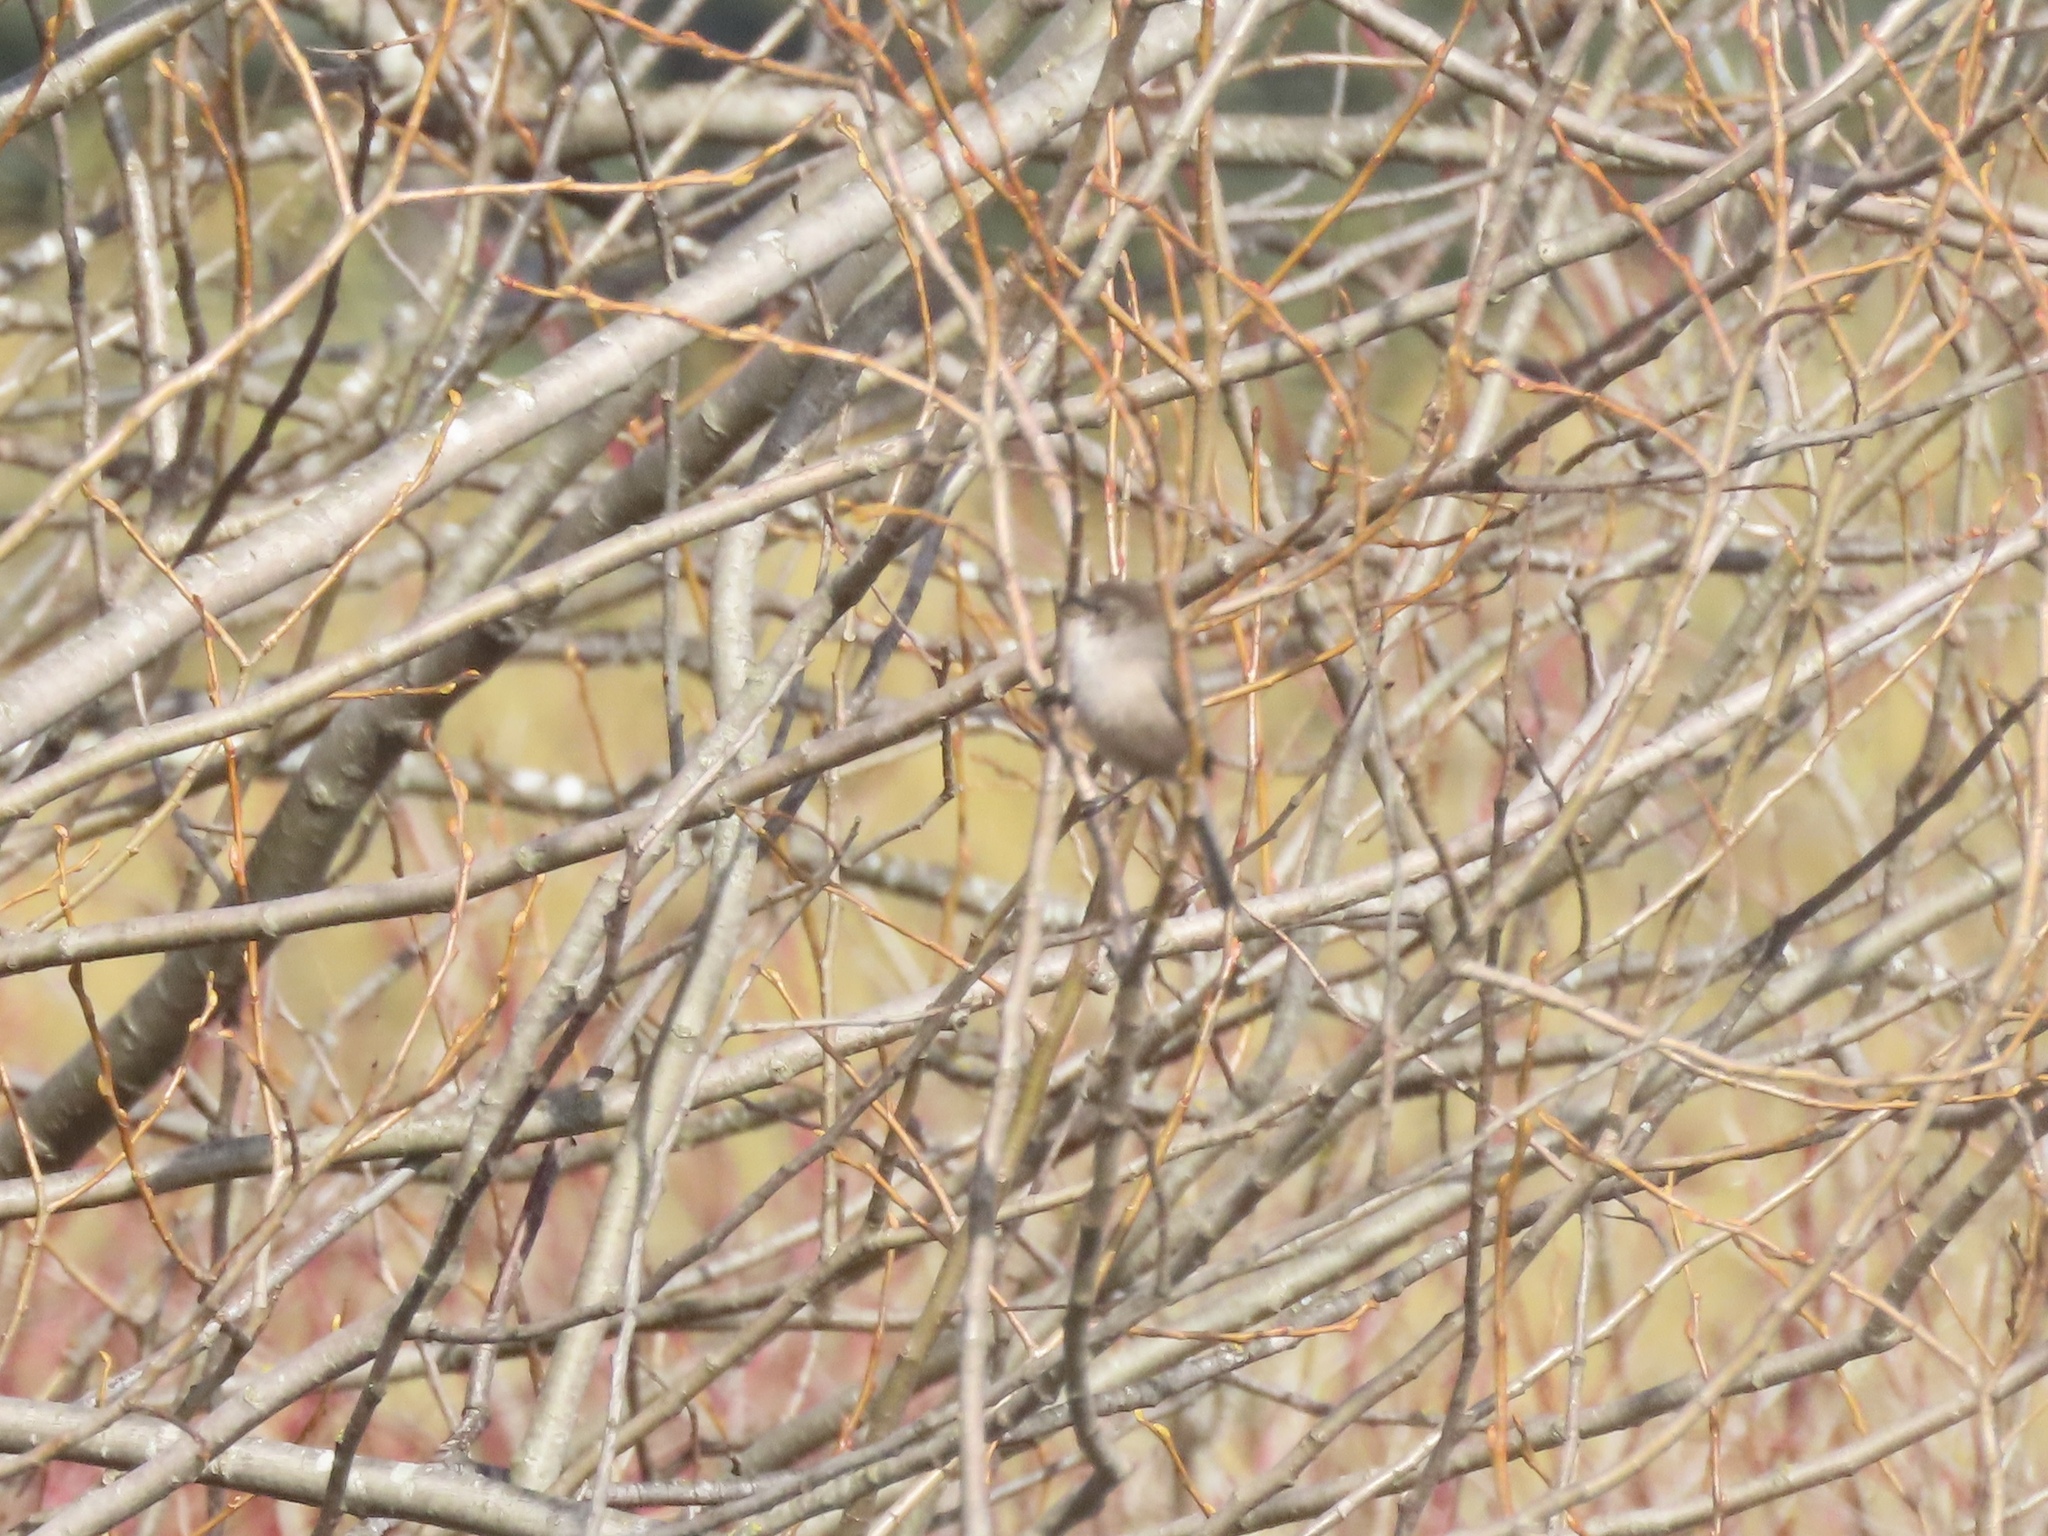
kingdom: Animalia
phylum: Chordata
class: Aves
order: Passeriformes
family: Aegithalidae
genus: Psaltriparus
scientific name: Psaltriparus minimus
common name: American bushtit
